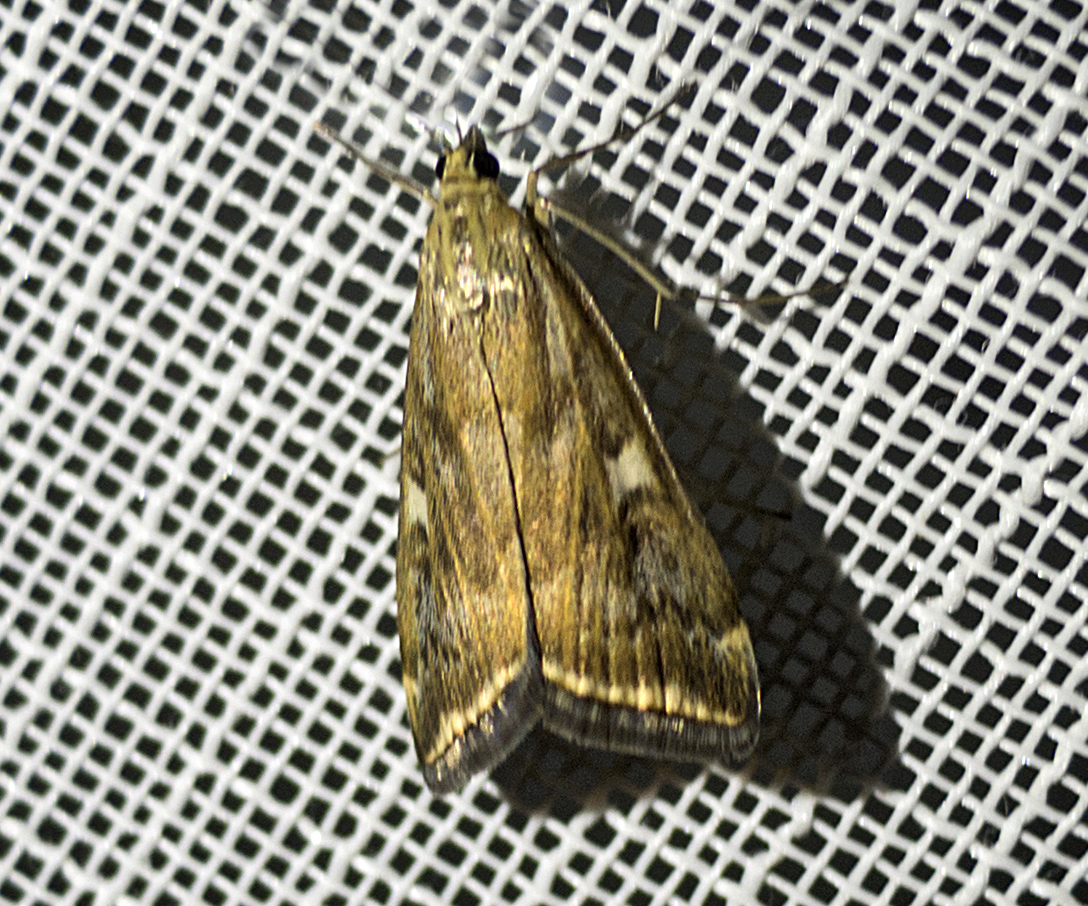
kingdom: Animalia
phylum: Arthropoda
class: Insecta
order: Lepidoptera
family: Crambidae
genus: Loxostege
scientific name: Loxostege sticticalis
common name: Crambid moth
